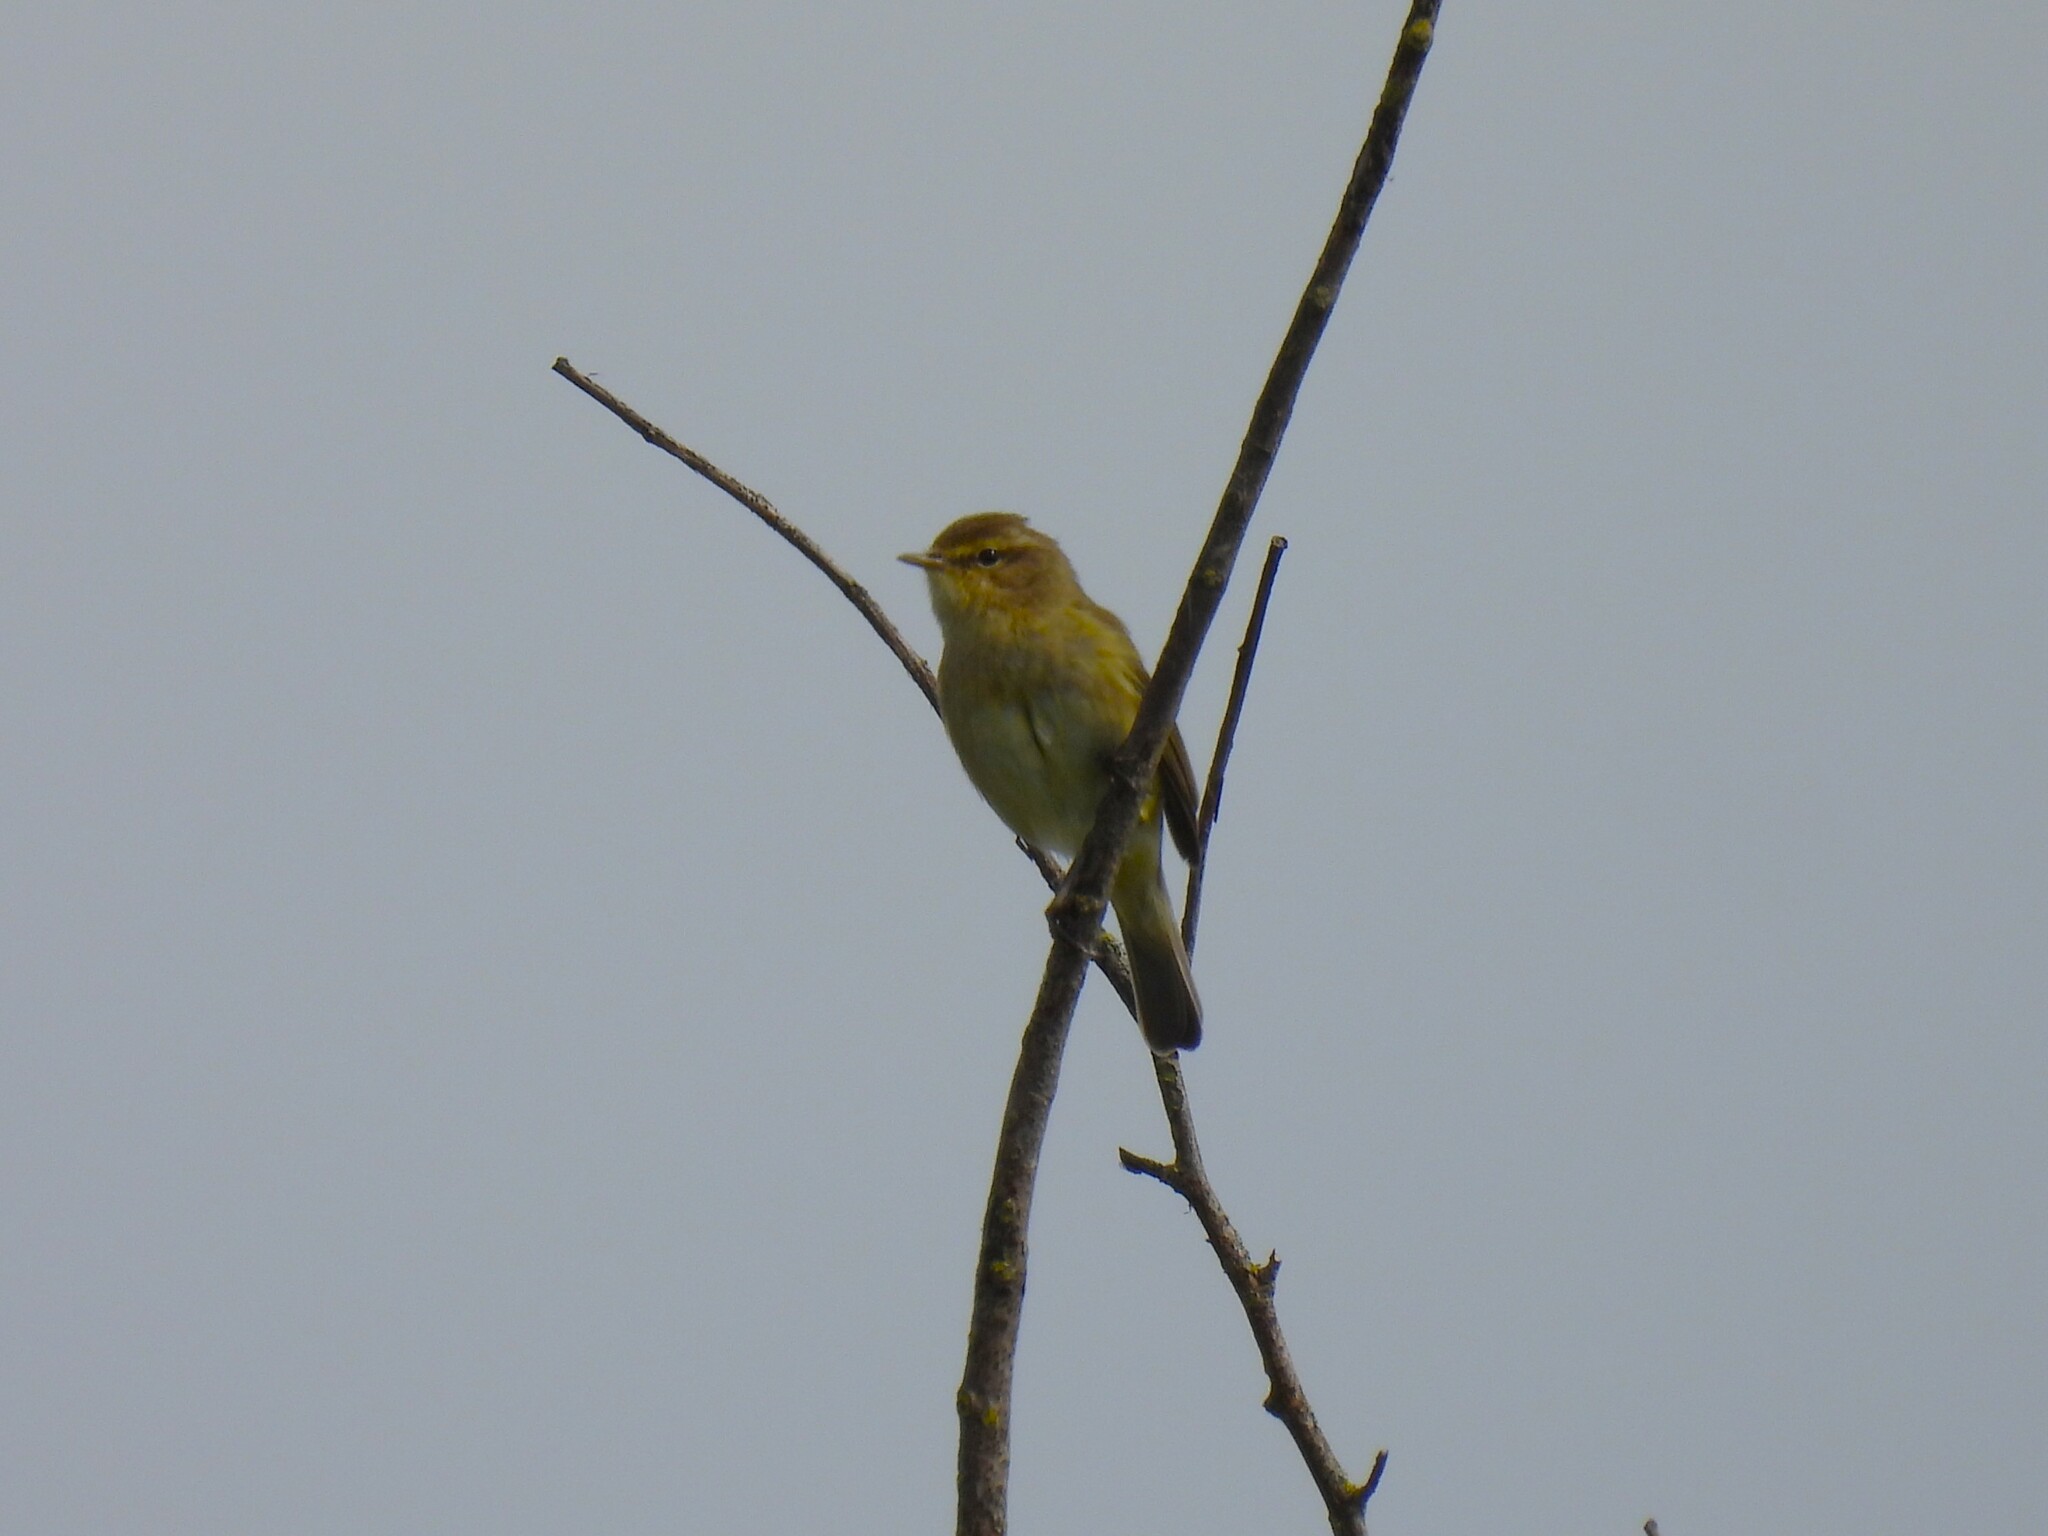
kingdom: Animalia
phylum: Chordata
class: Aves
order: Passeriformes
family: Phylloscopidae
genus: Phylloscopus
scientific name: Phylloscopus collybita
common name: Common chiffchaff
